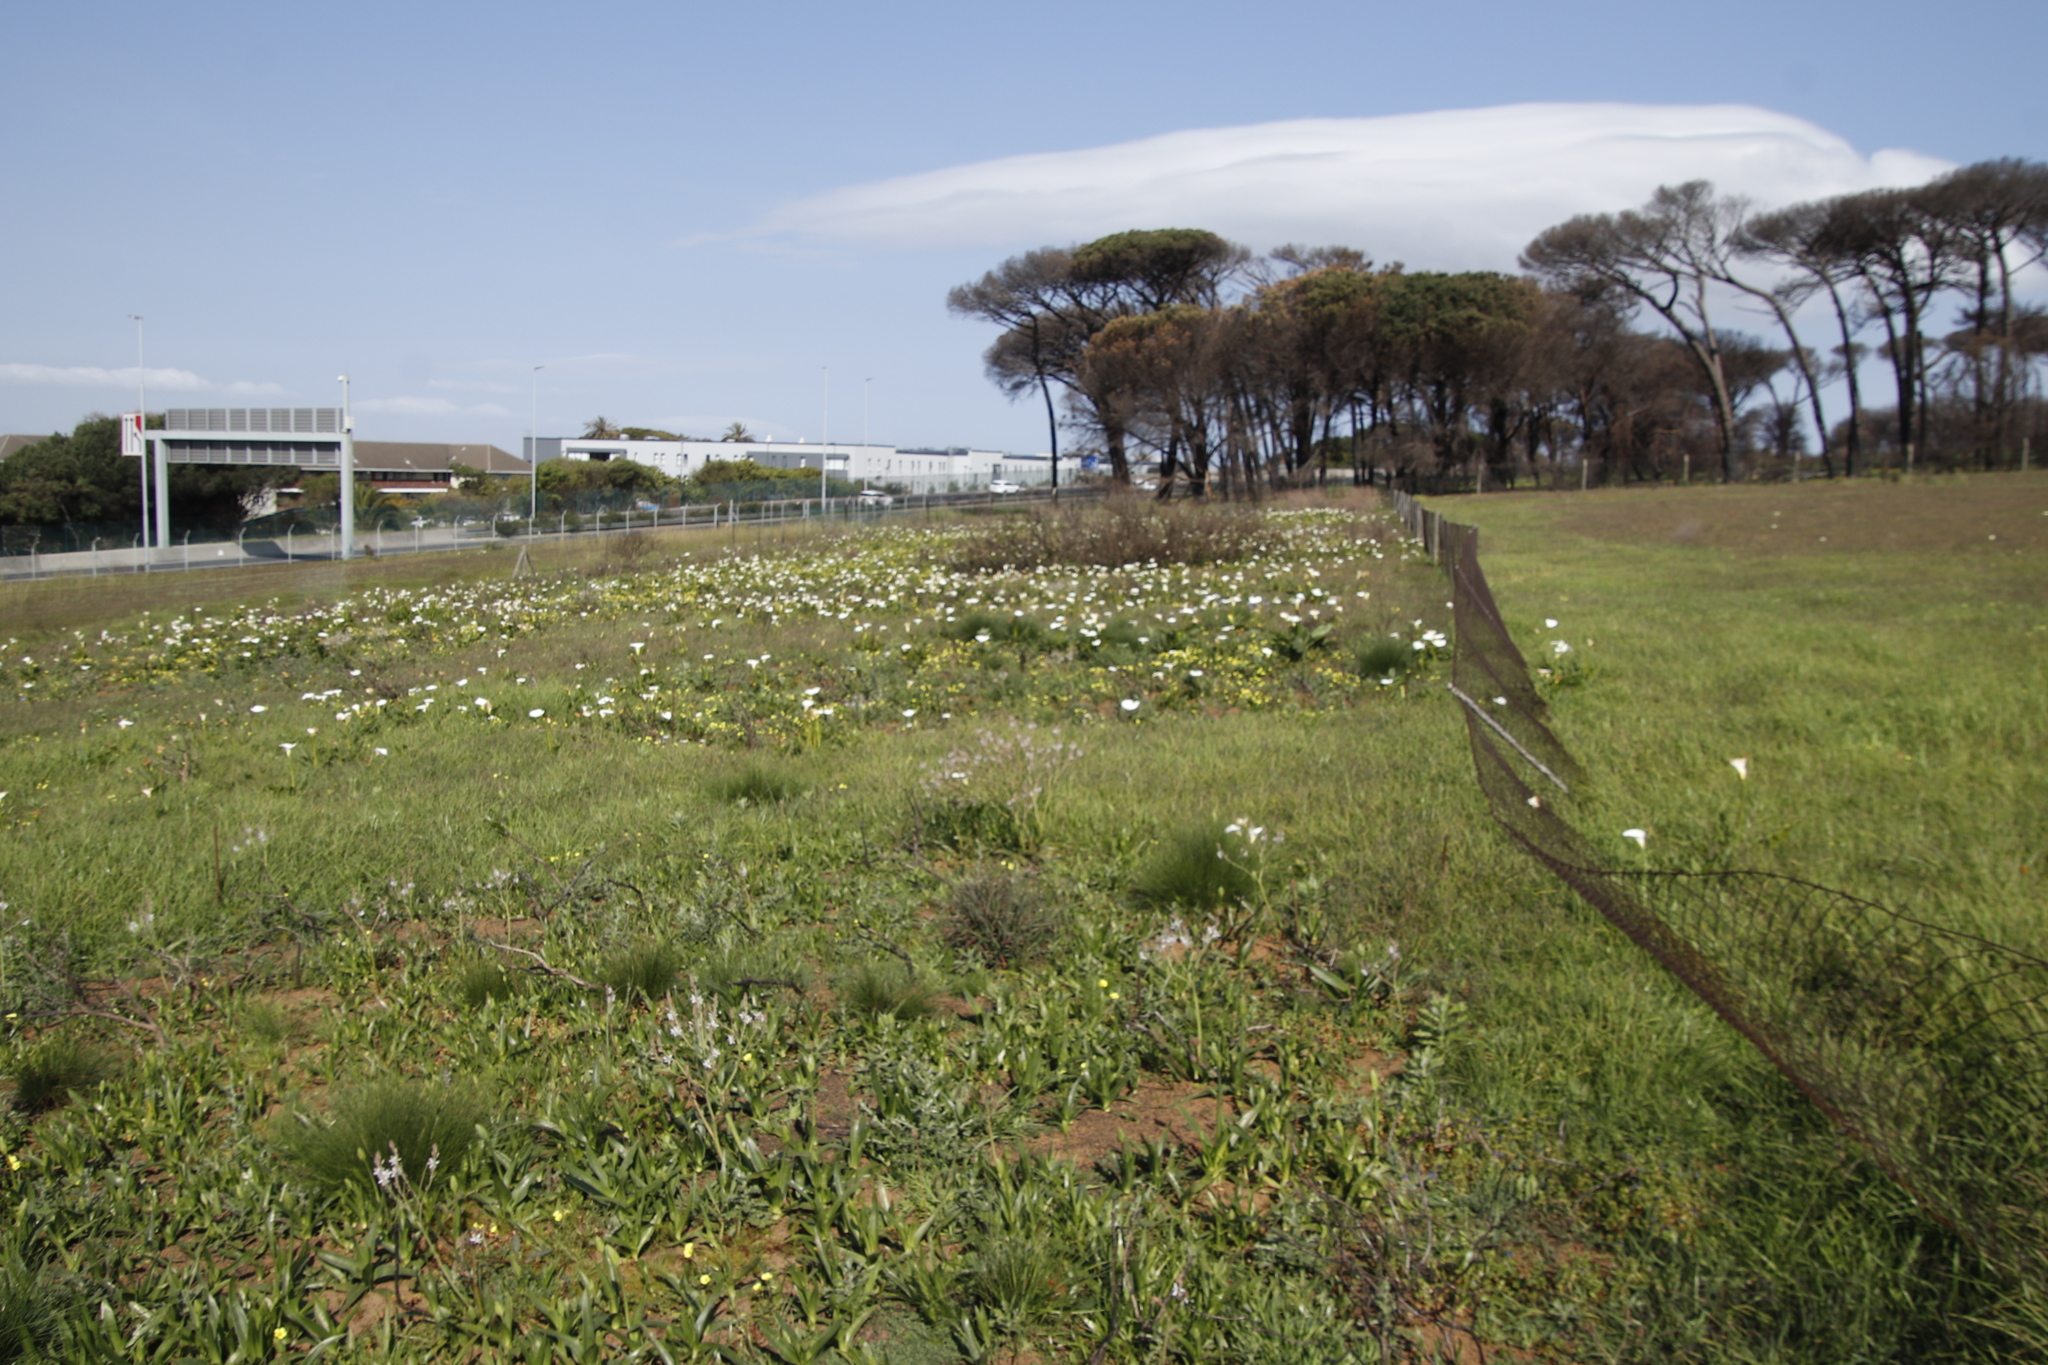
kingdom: Plantae
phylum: Tracheophyta
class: Liliopsida
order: Alismatales
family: Araceae
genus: Zantedeschia
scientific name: Zantedeschia aethiopica
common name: Altar-lily
